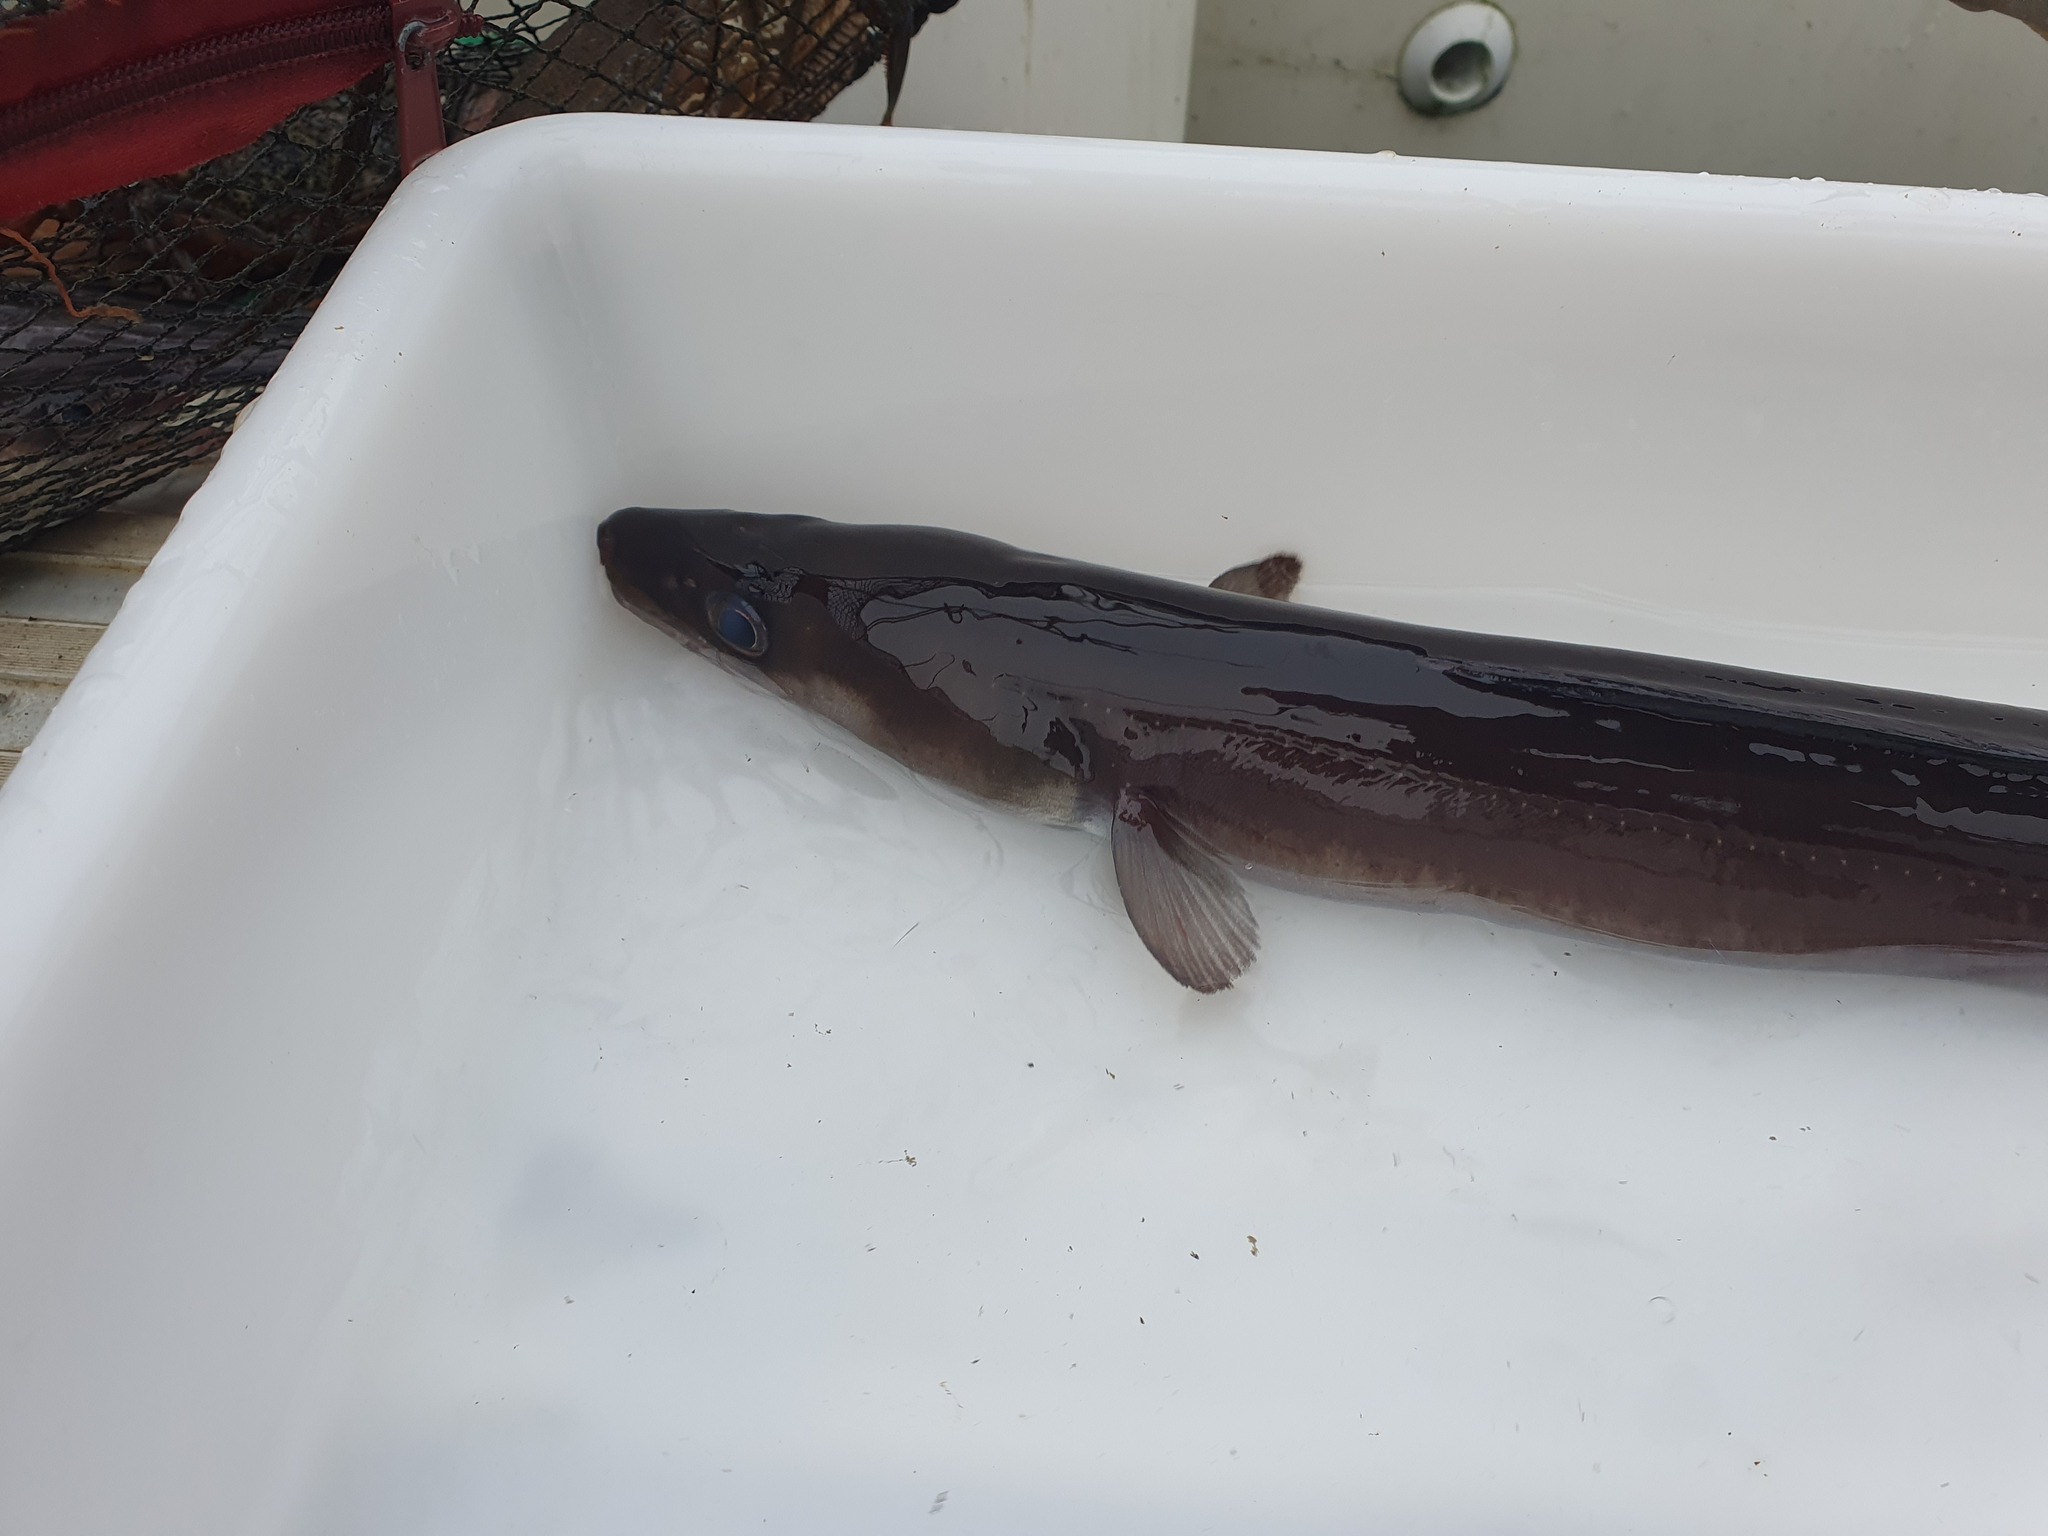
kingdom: Animalia
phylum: Chordata
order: Anguilliformes
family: Congridae
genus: Conger
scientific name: Conger conger
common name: Conger eel
